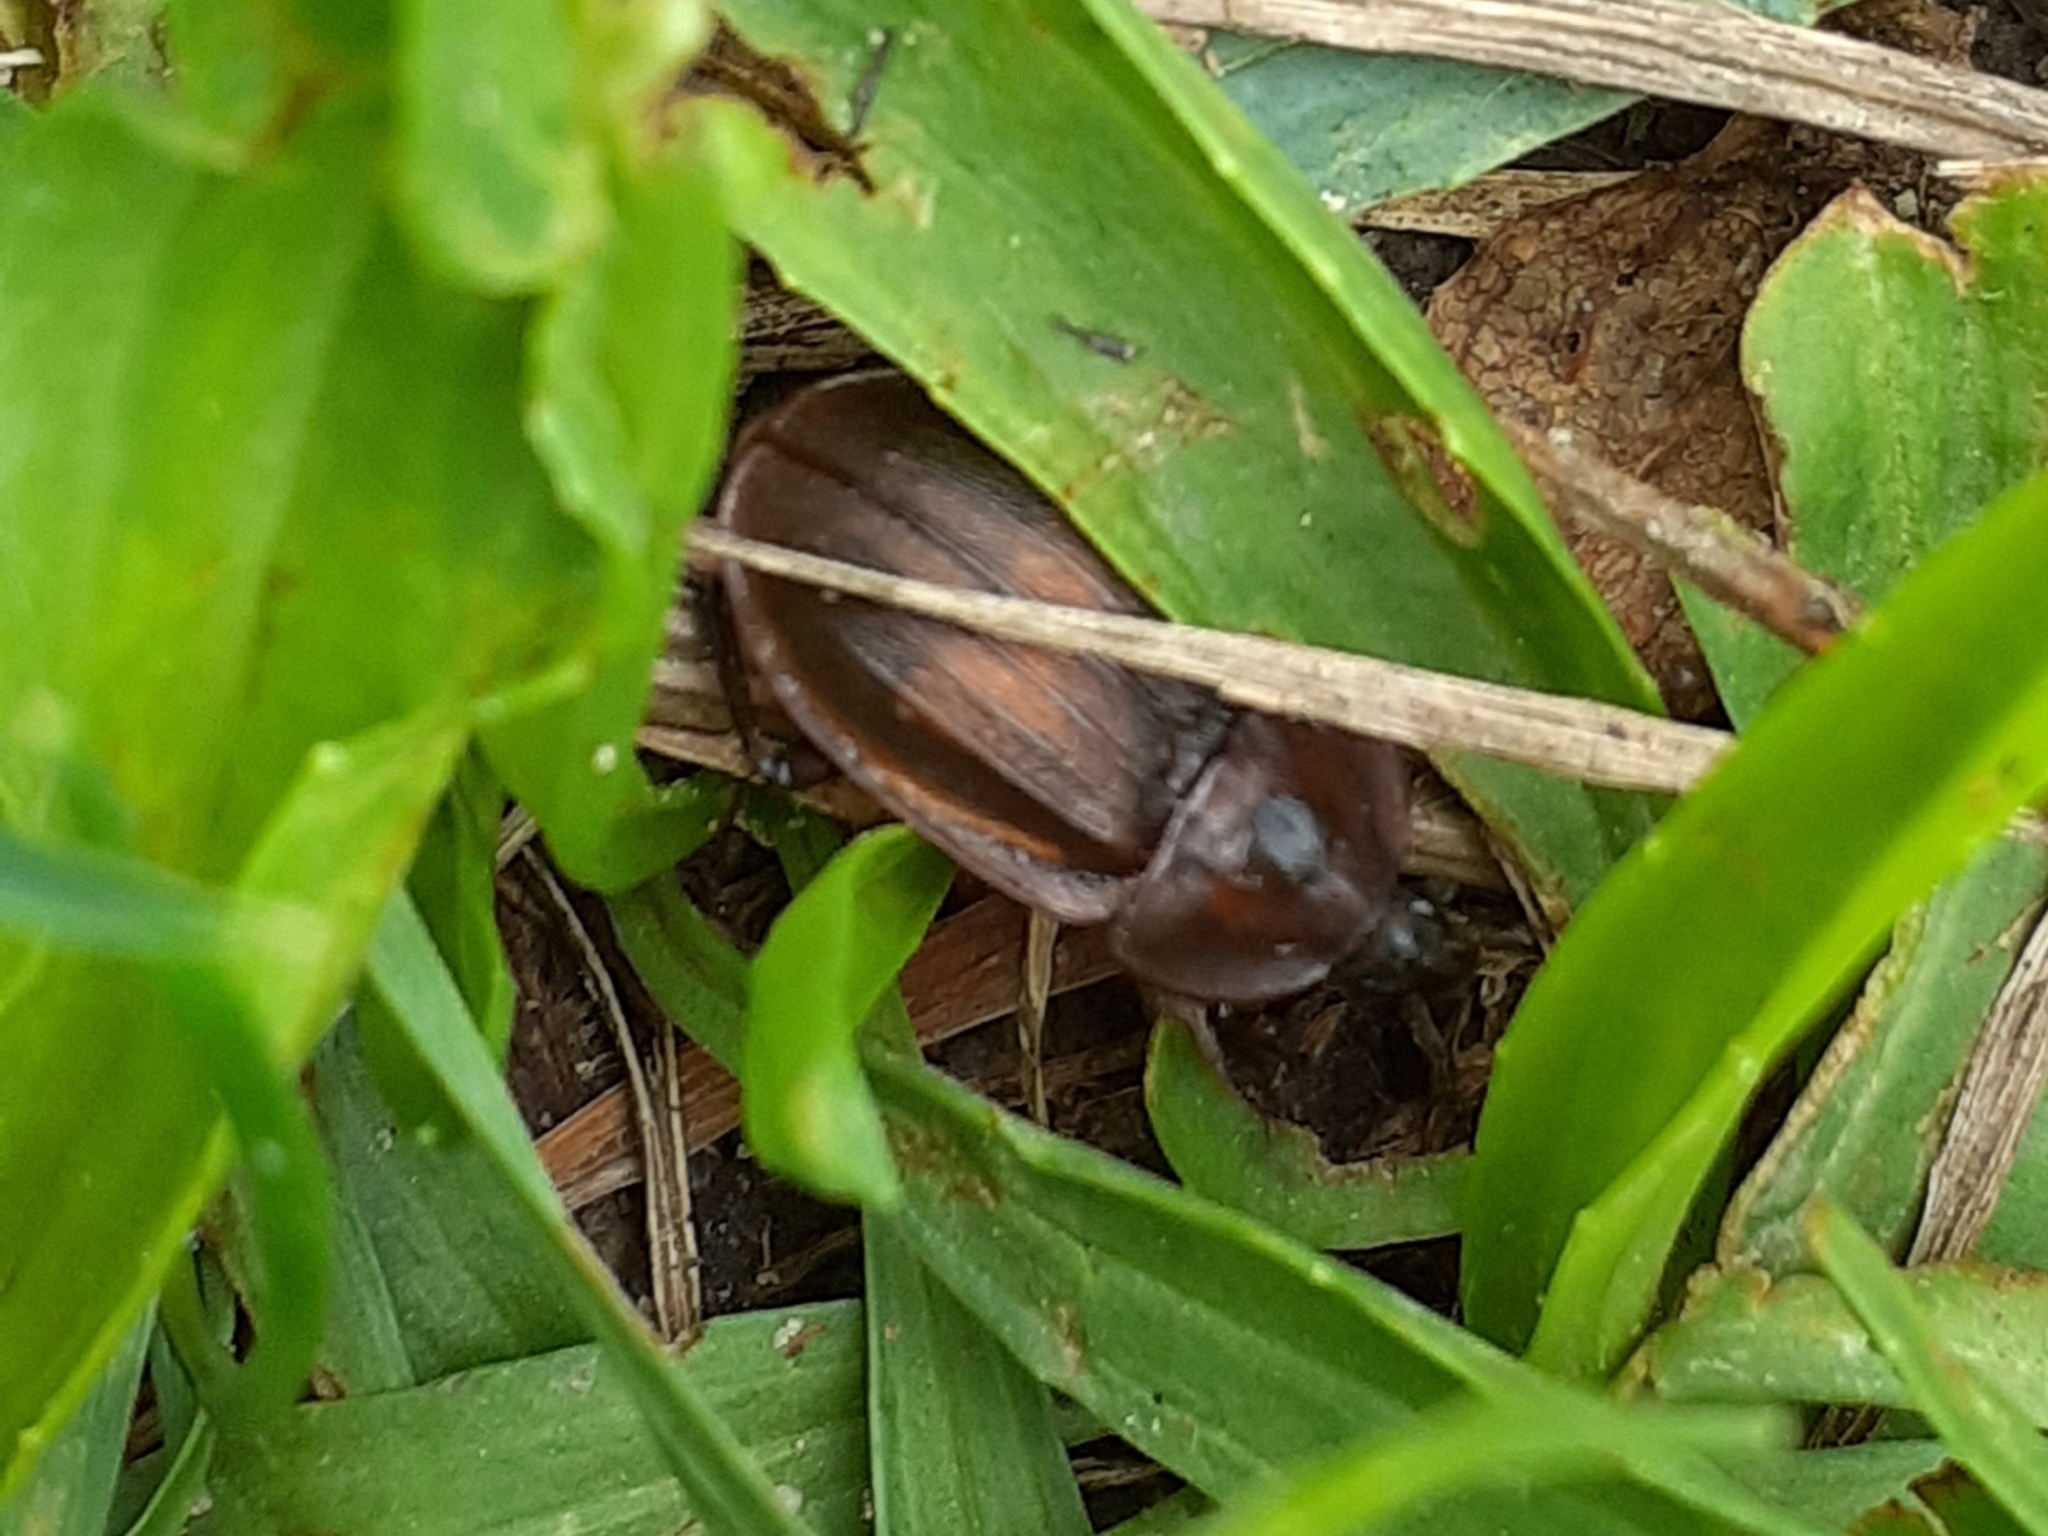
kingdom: Animalia
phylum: Arthropoda
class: Insecta
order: Coleoptera
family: Staphylinidae
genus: Silpha
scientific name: Silpha atrata
